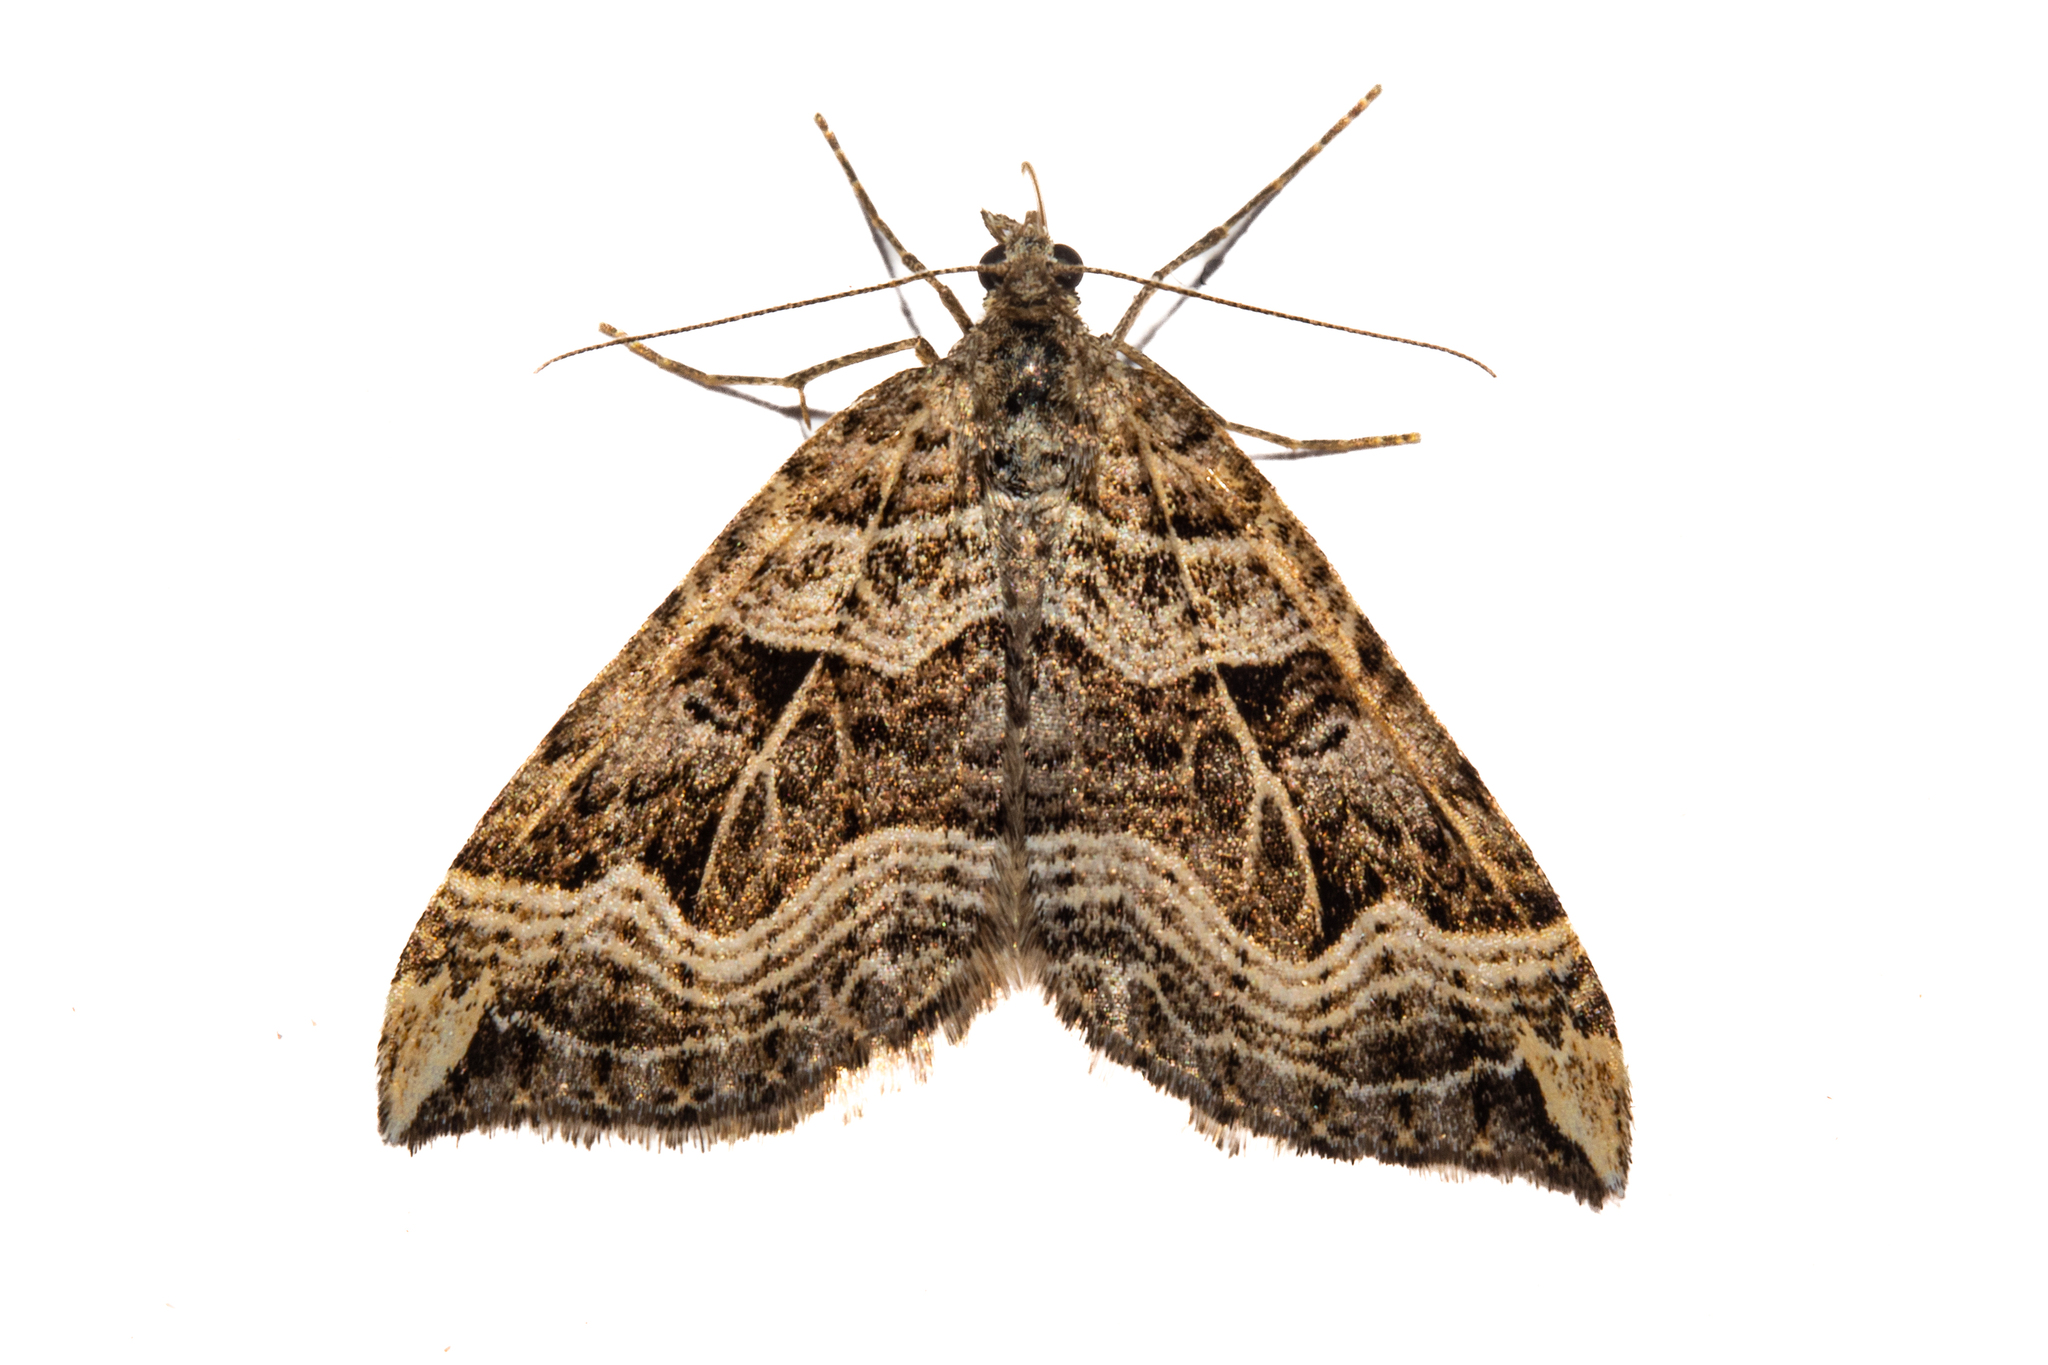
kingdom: Animalia
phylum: Arthropoda
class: Insecta
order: Lepidoptera
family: Geometridae
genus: Xanthorhoe
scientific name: Xanthorhoe semifissata
